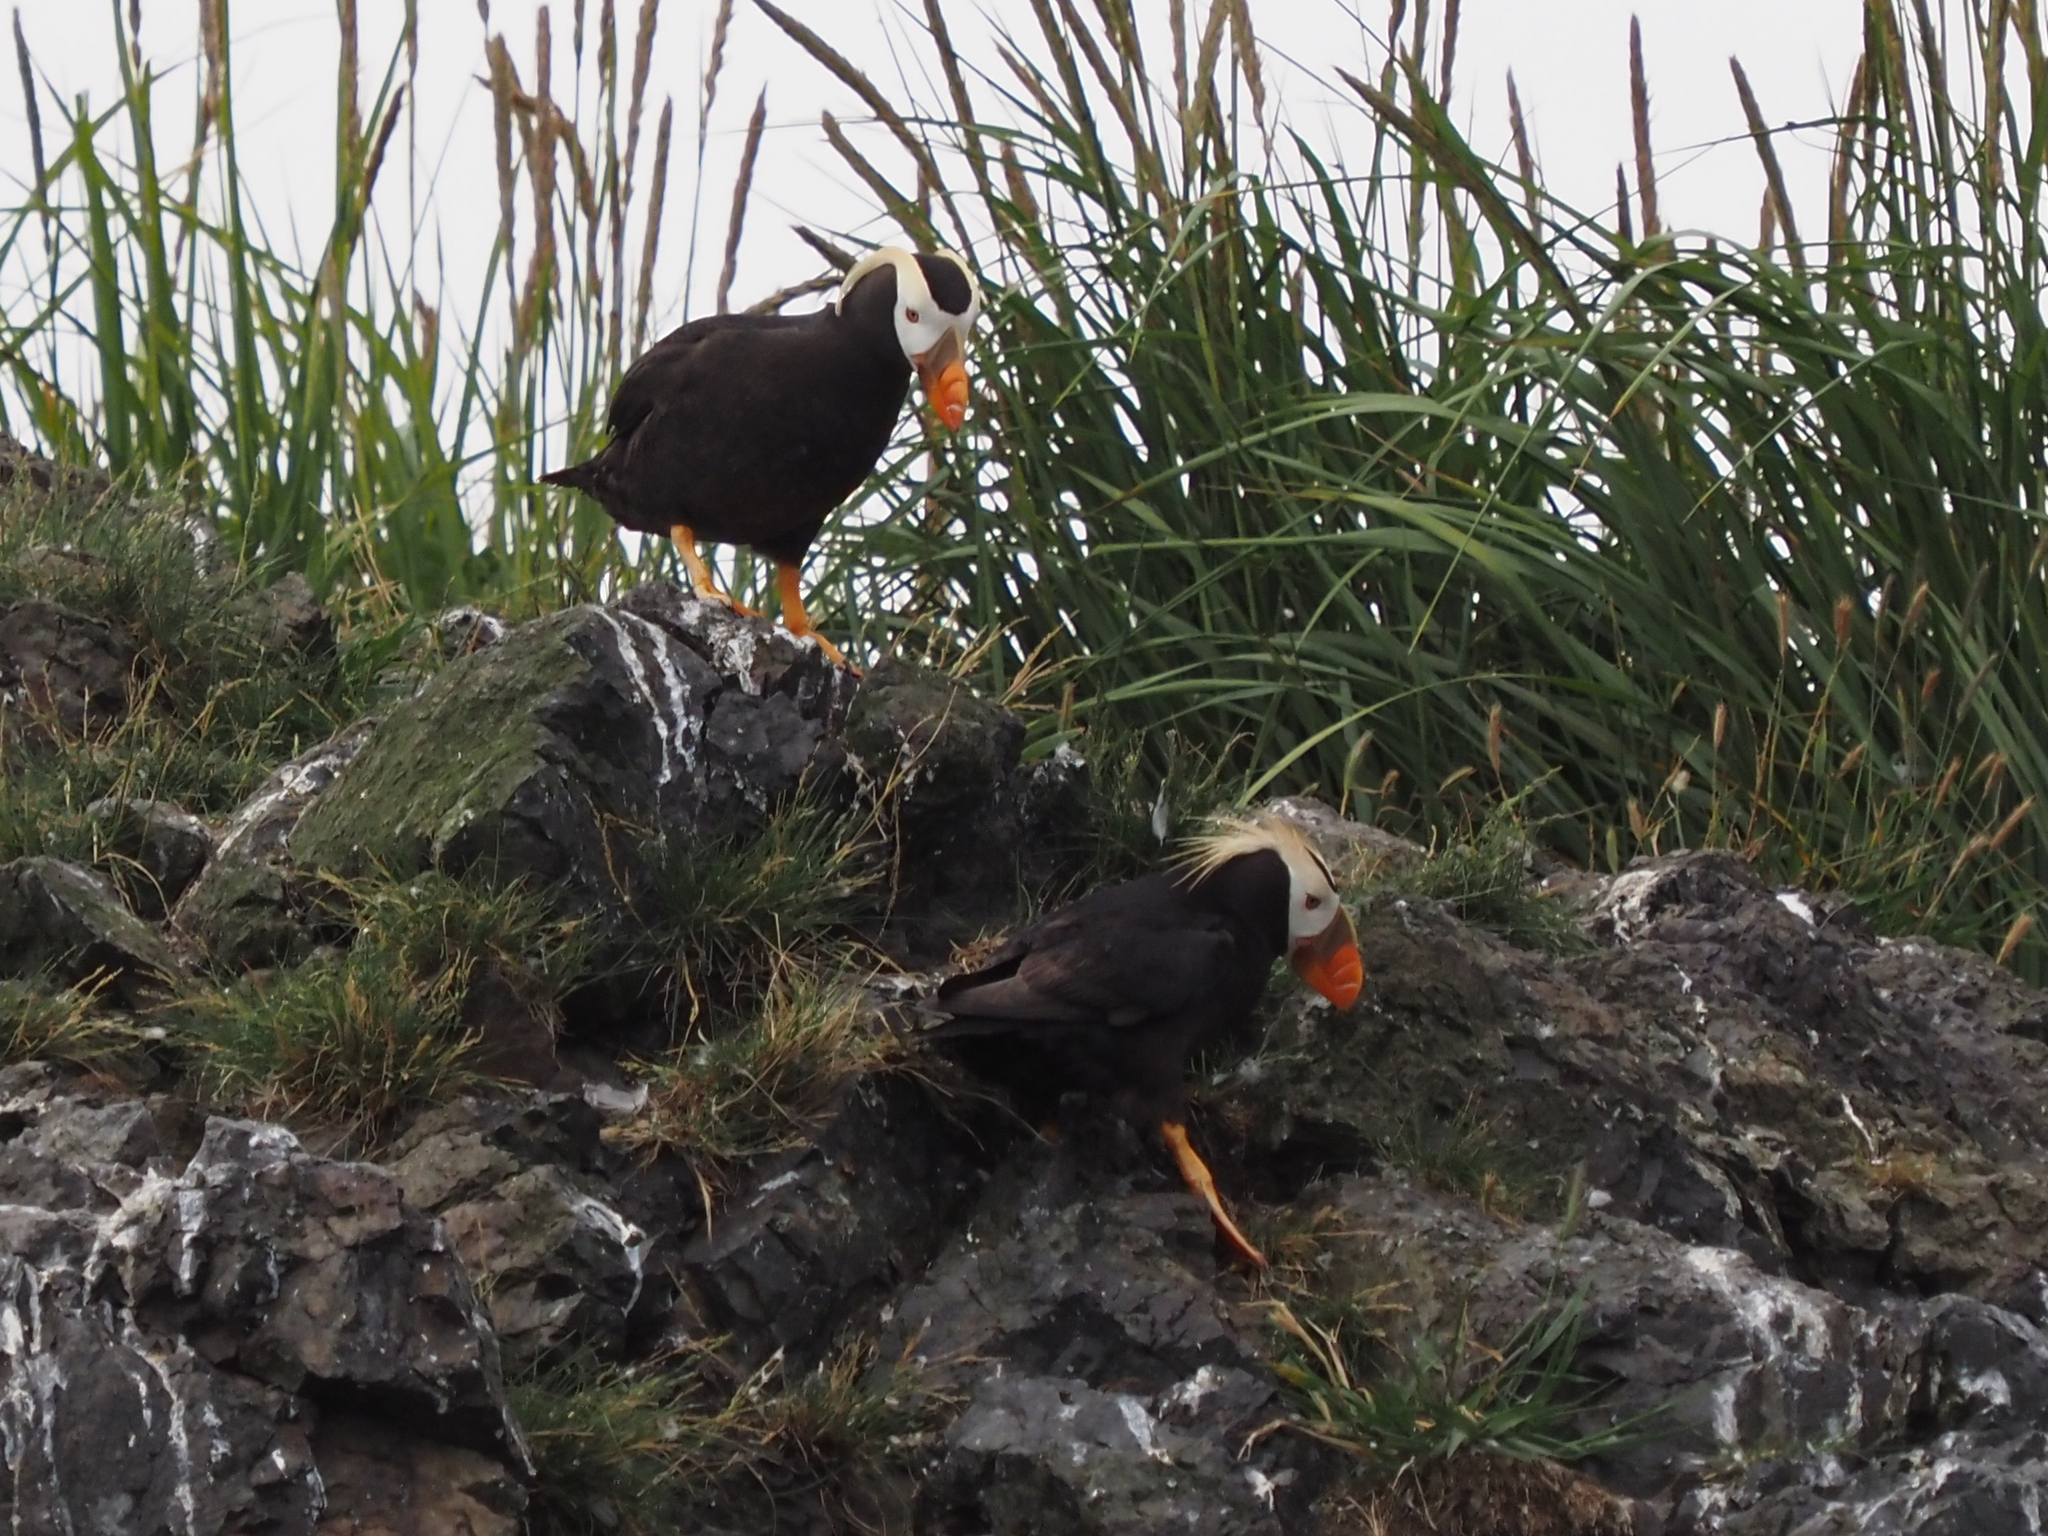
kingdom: Animalia
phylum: Chordata
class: Aves
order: Charadriiformes
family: Alcidae
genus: Fratercula
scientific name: Fratercula cirrhata
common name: Tufted puffin
